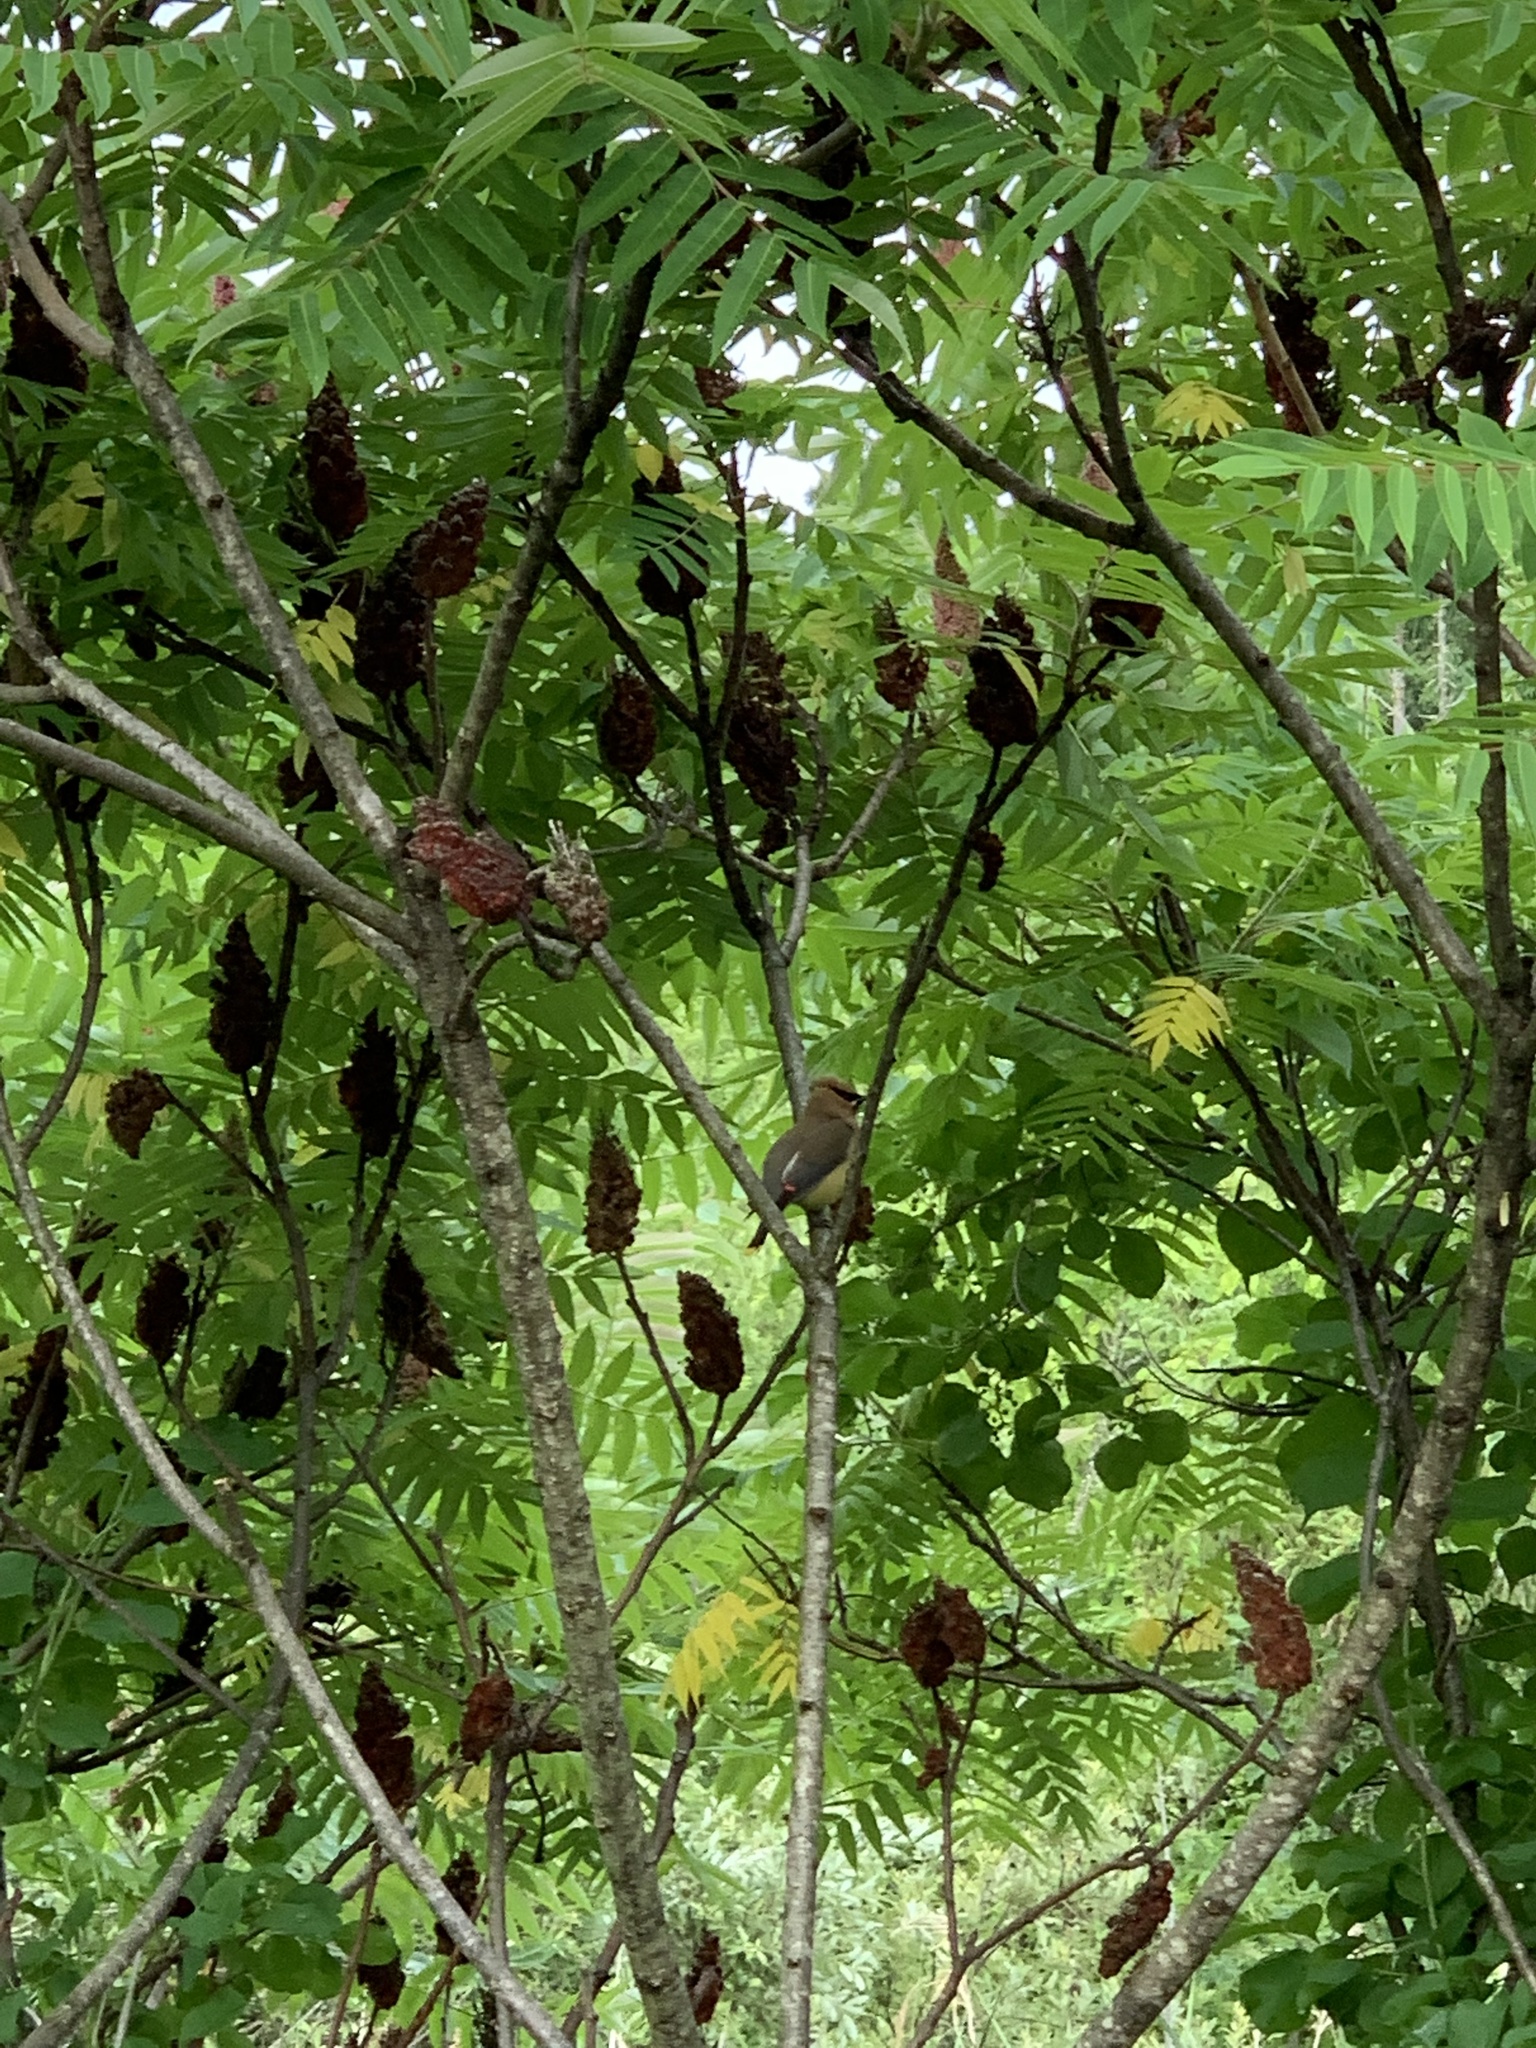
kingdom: Animalia
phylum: Chordata
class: Aves
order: Passeriformes
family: Bombycillidae
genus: Bombycilla
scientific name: Bombycilla cedrorum
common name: Cedar waxwing
